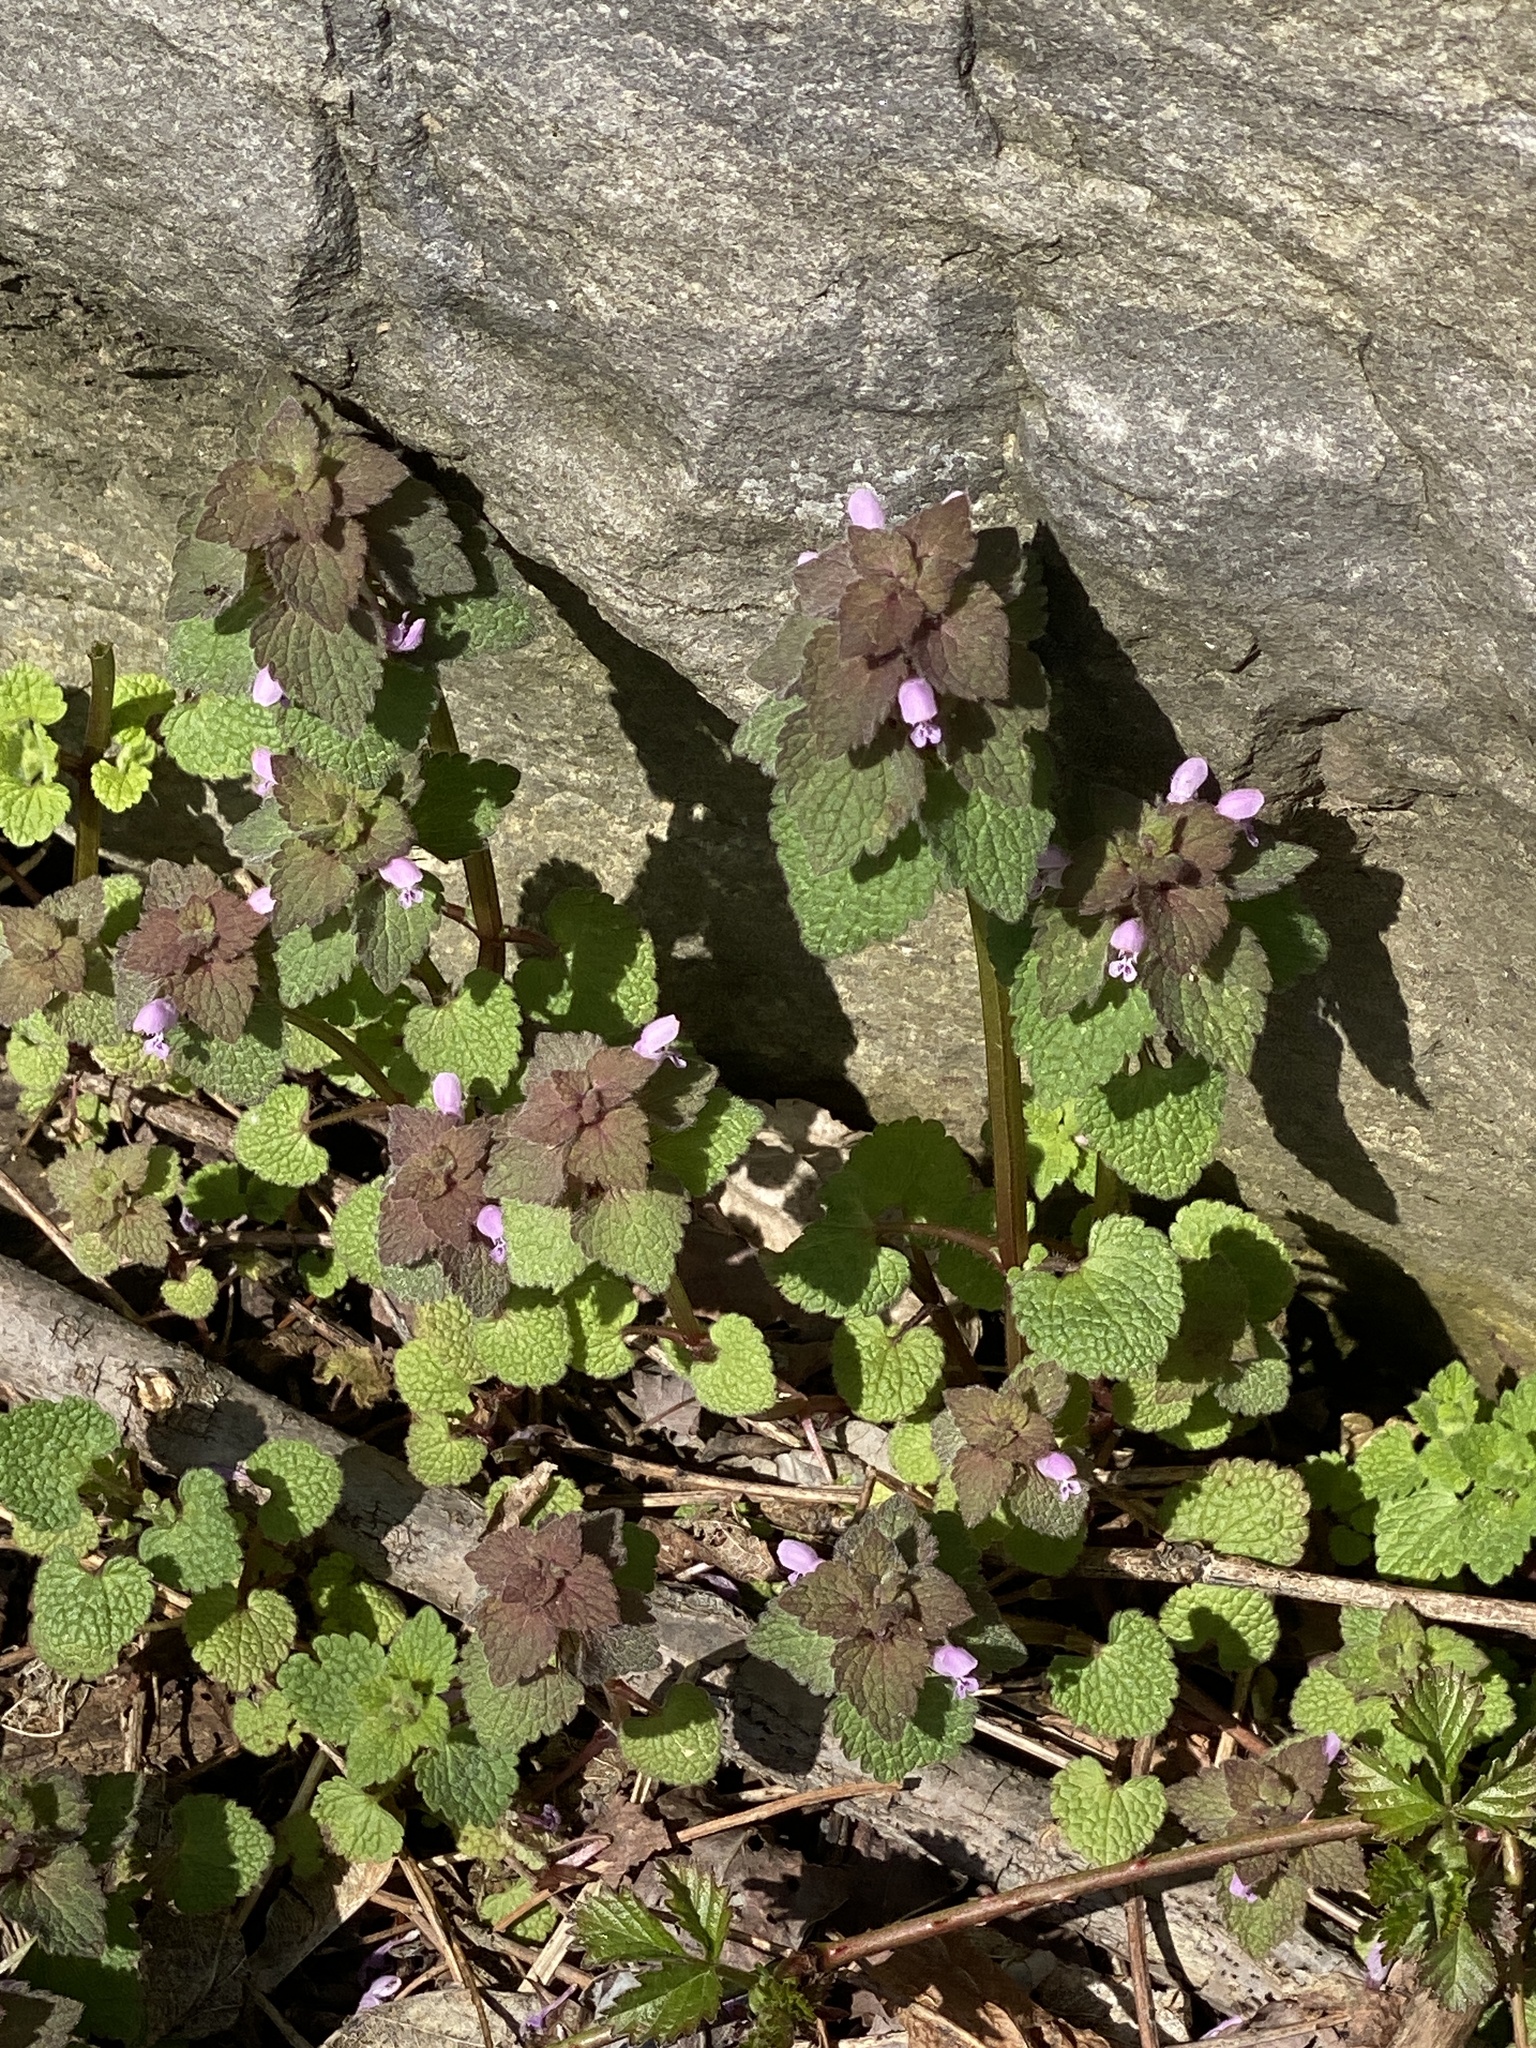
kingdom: Plantae
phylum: Tracheophyta
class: Magnoliopsida
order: Lamiales
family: Lamiaceae
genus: Lamium
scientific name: Lamium purpureum
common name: Red dead-nettle
